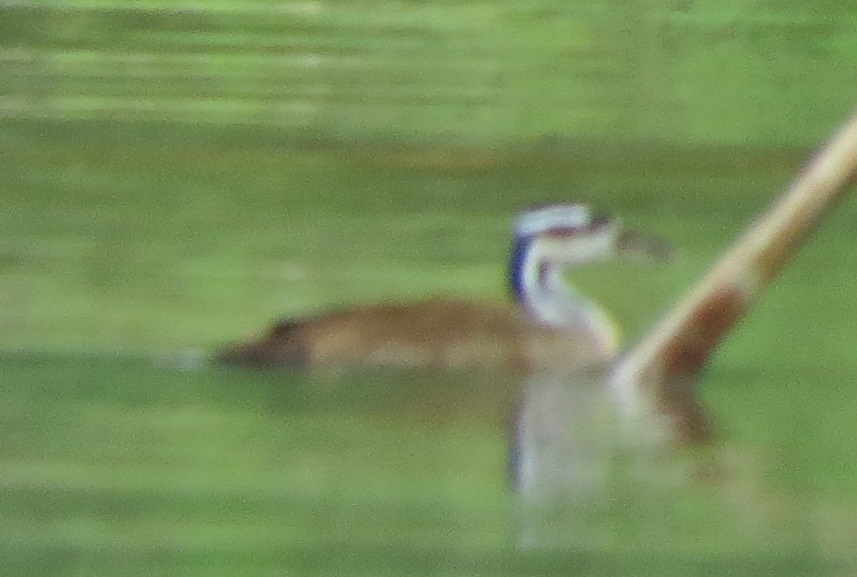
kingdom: Animalia
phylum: Chordata
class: Aves
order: Gruiformes
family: Heliornithidae
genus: Heliornis
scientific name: Heliornis fulica
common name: Sungrebe
